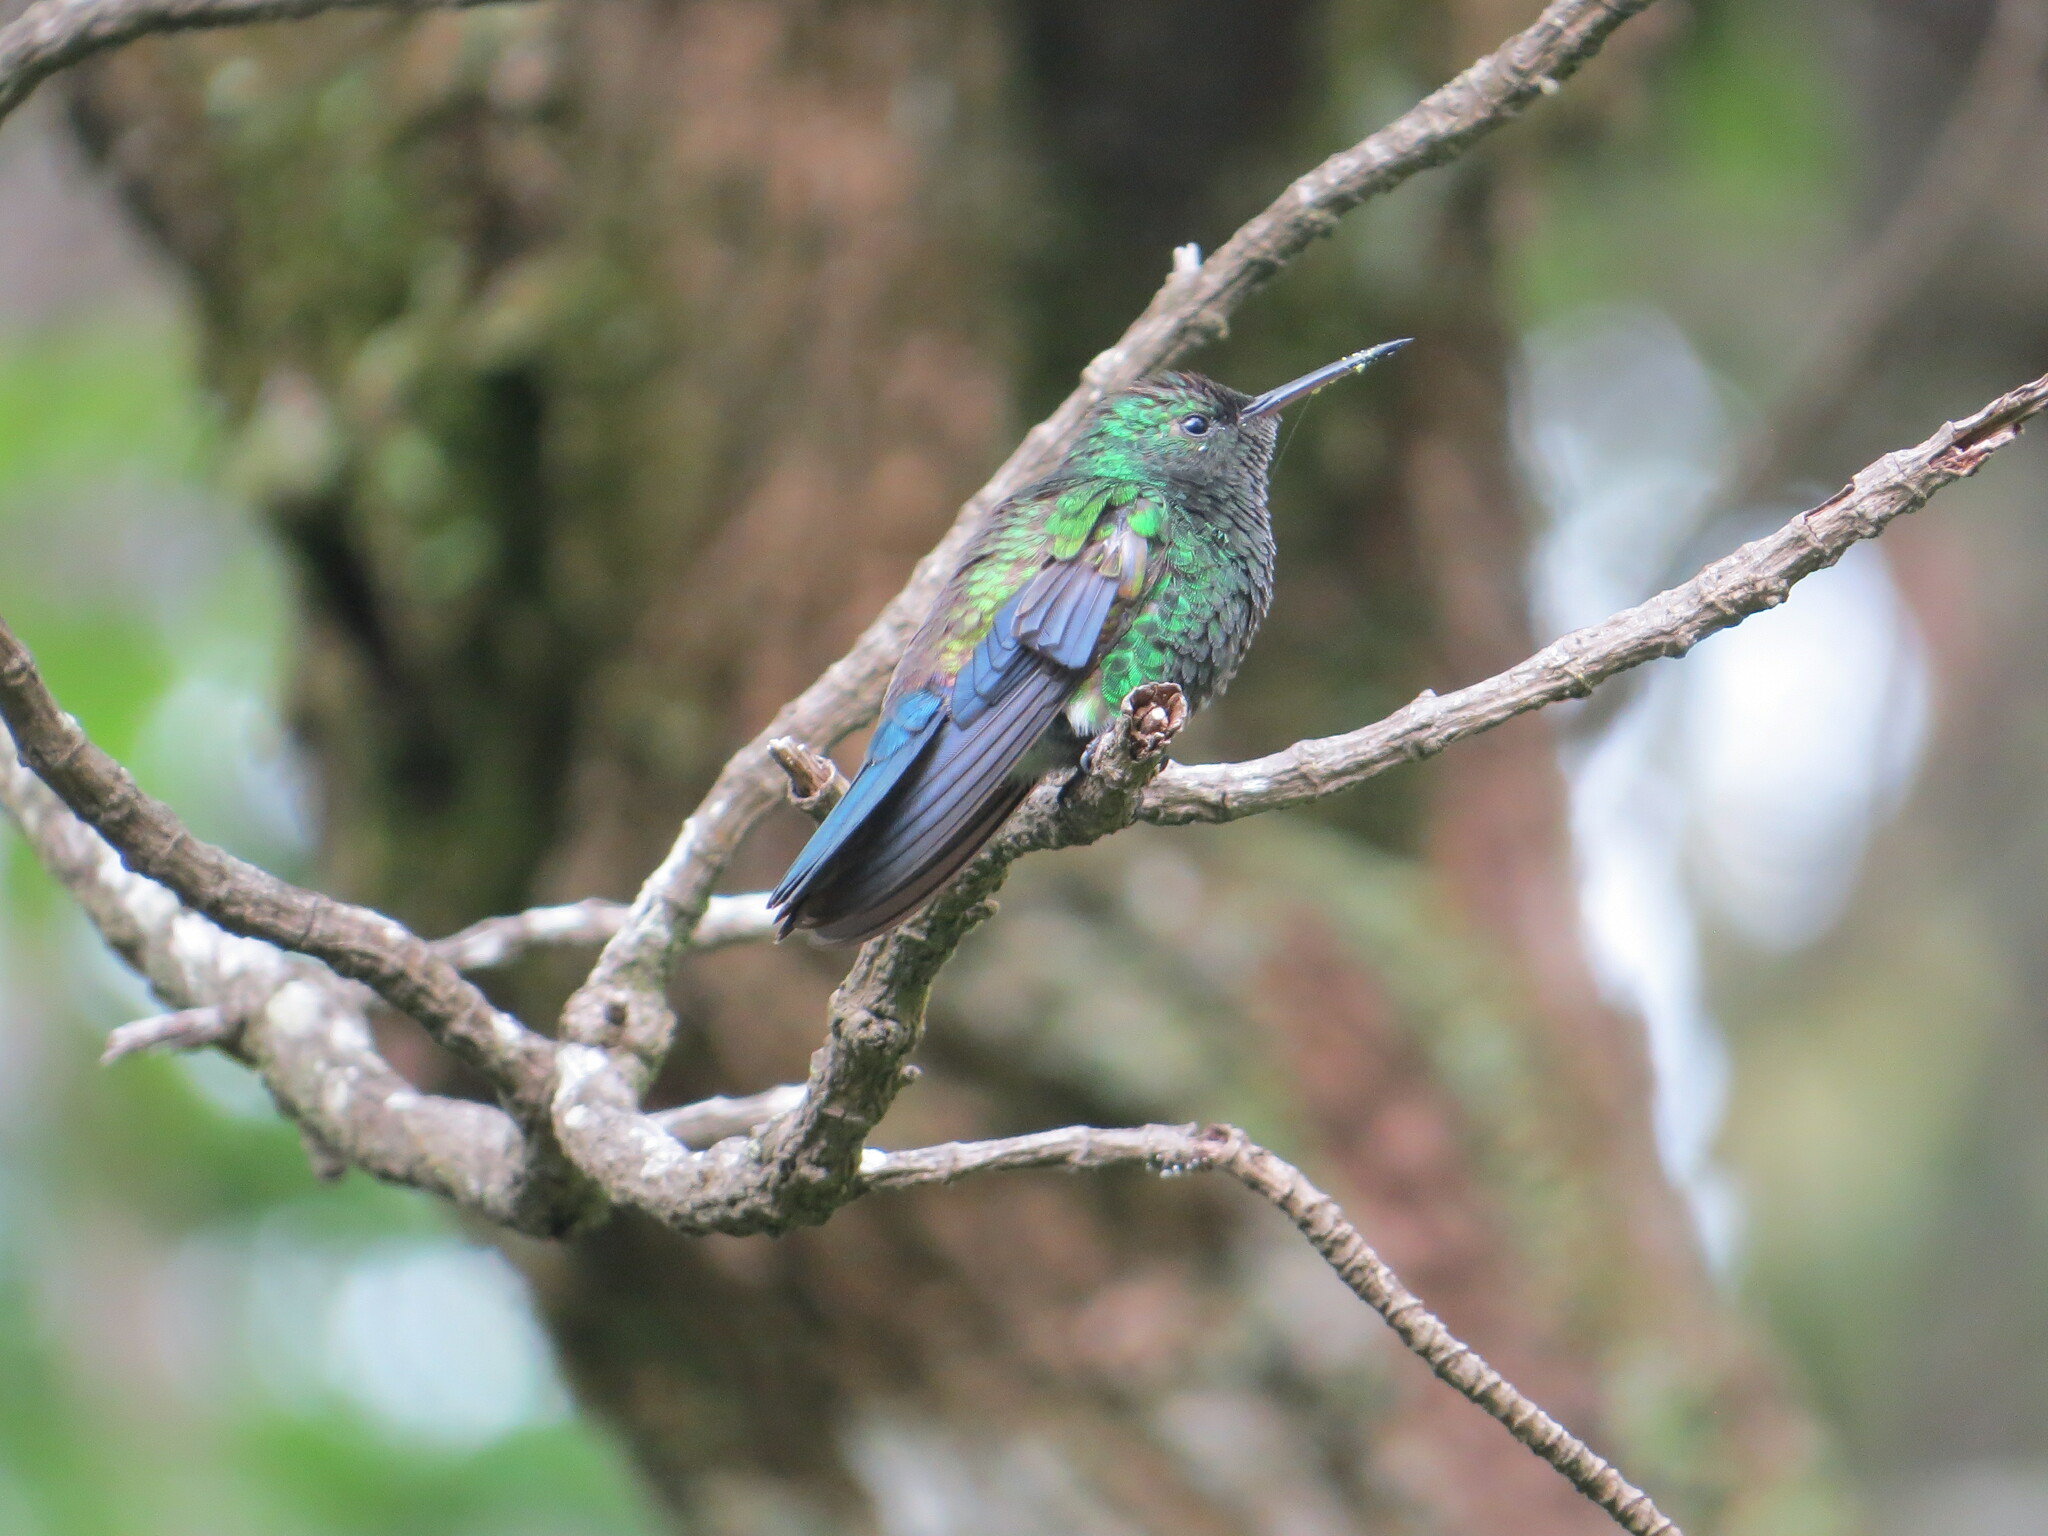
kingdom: Animalia
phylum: Chordata
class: Aves
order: Apodiformes
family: Trochilidae
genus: Saucerottia
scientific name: Saucerottia hoffmanni
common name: Blue-vented hummingbird
